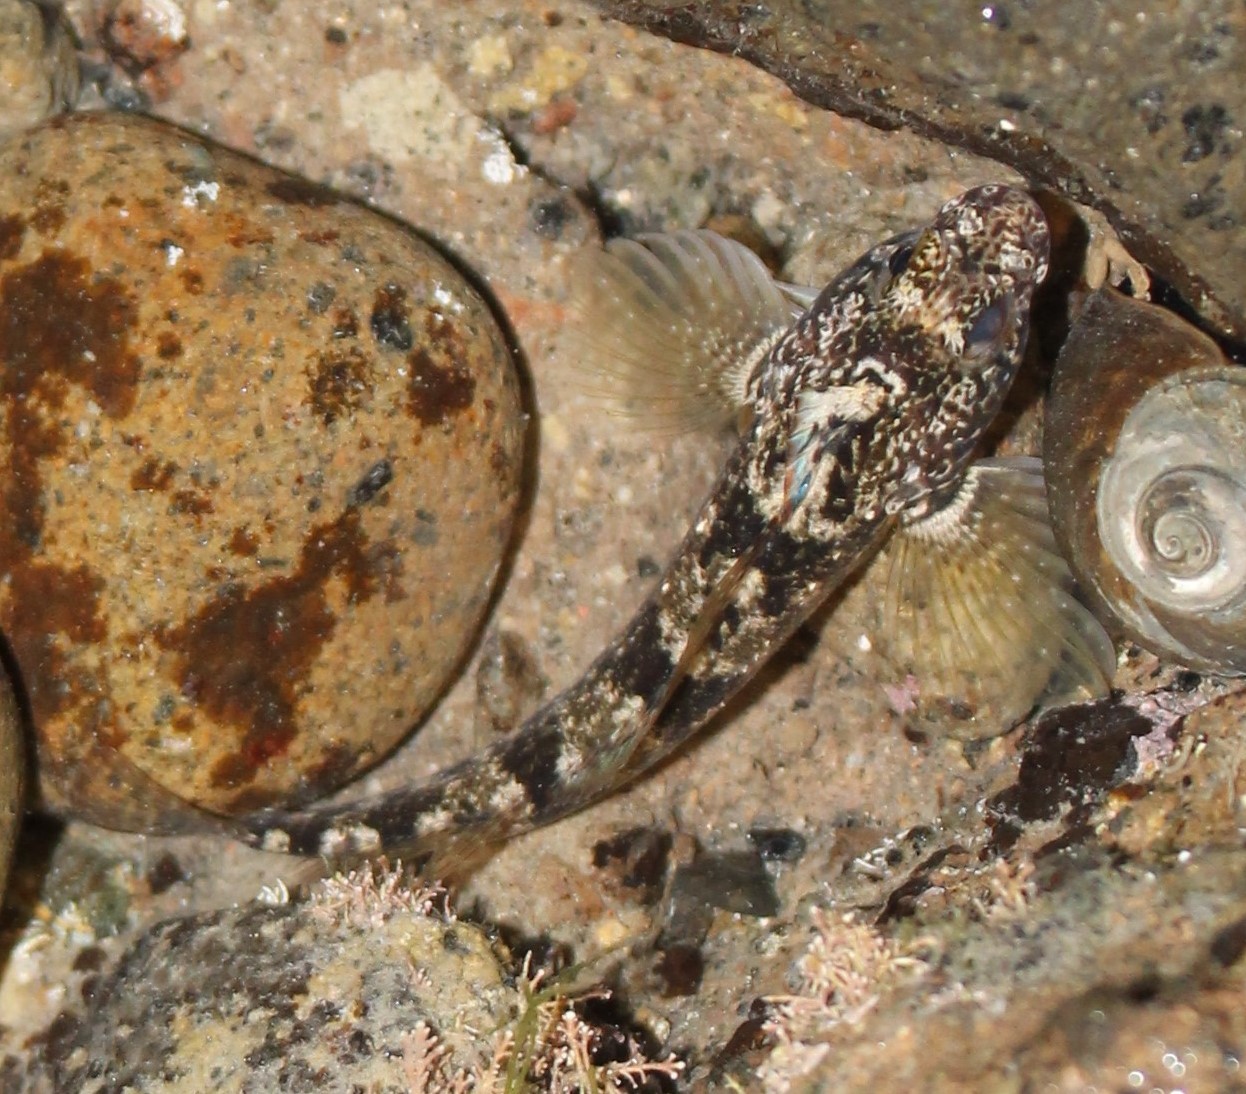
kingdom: Animalia
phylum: Chordata
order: Perciformes
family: Tripterygiidae
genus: Forsterygion
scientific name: Forsterygion gymnotum
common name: Multifid-tentacled robust triplefin
